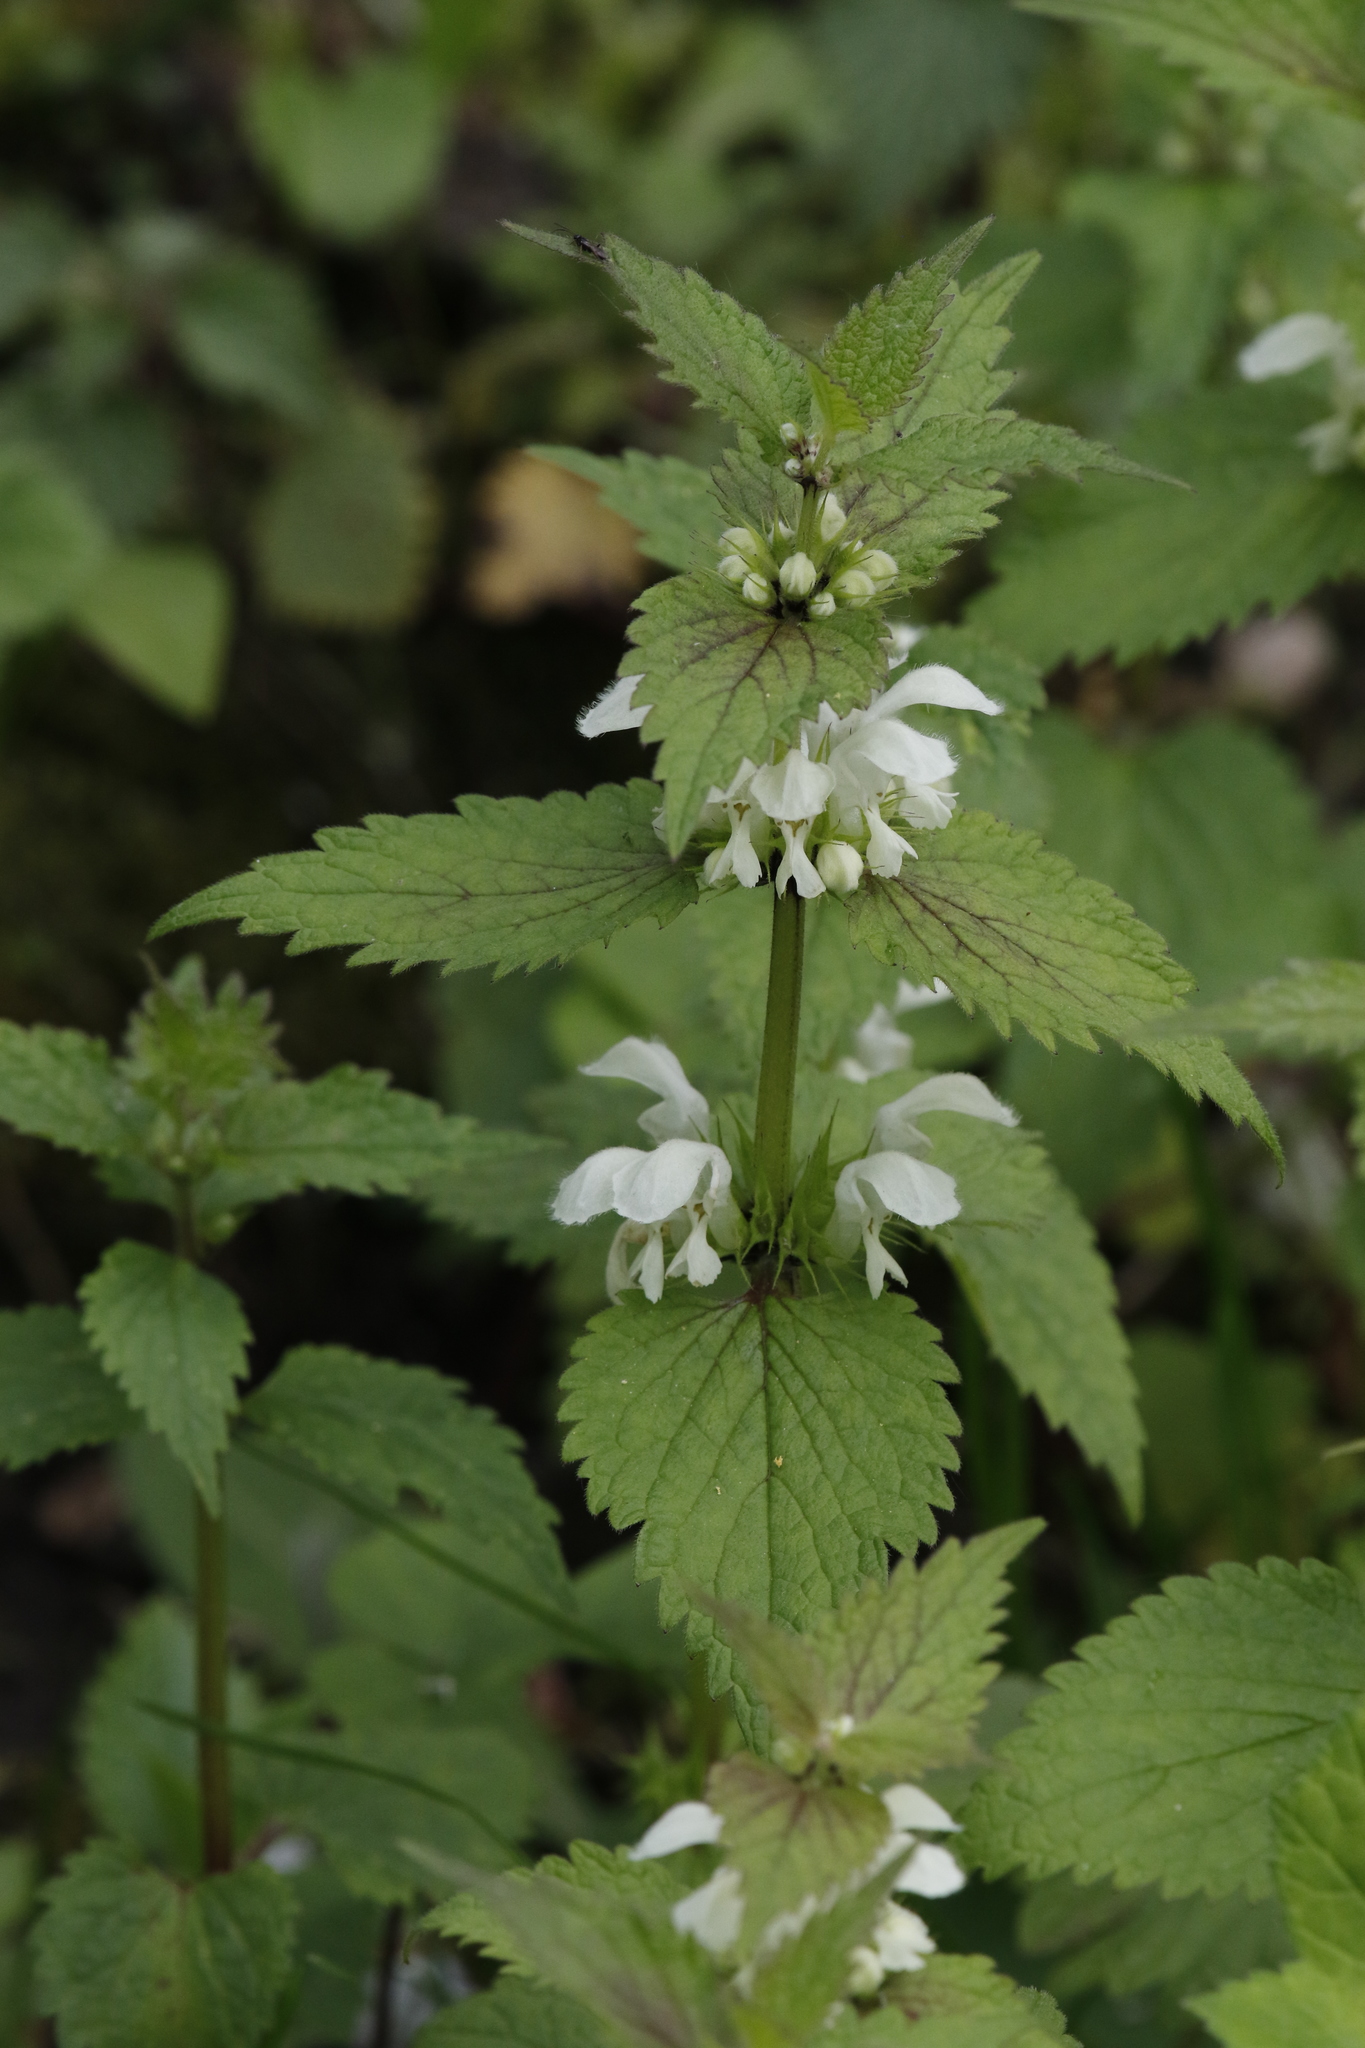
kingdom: Plantae
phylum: Tracheophyta
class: Magnoliopsida
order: Lamiales
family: Lamiaceae
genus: Lamium
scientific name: Lamium album
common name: White dead-nettle
